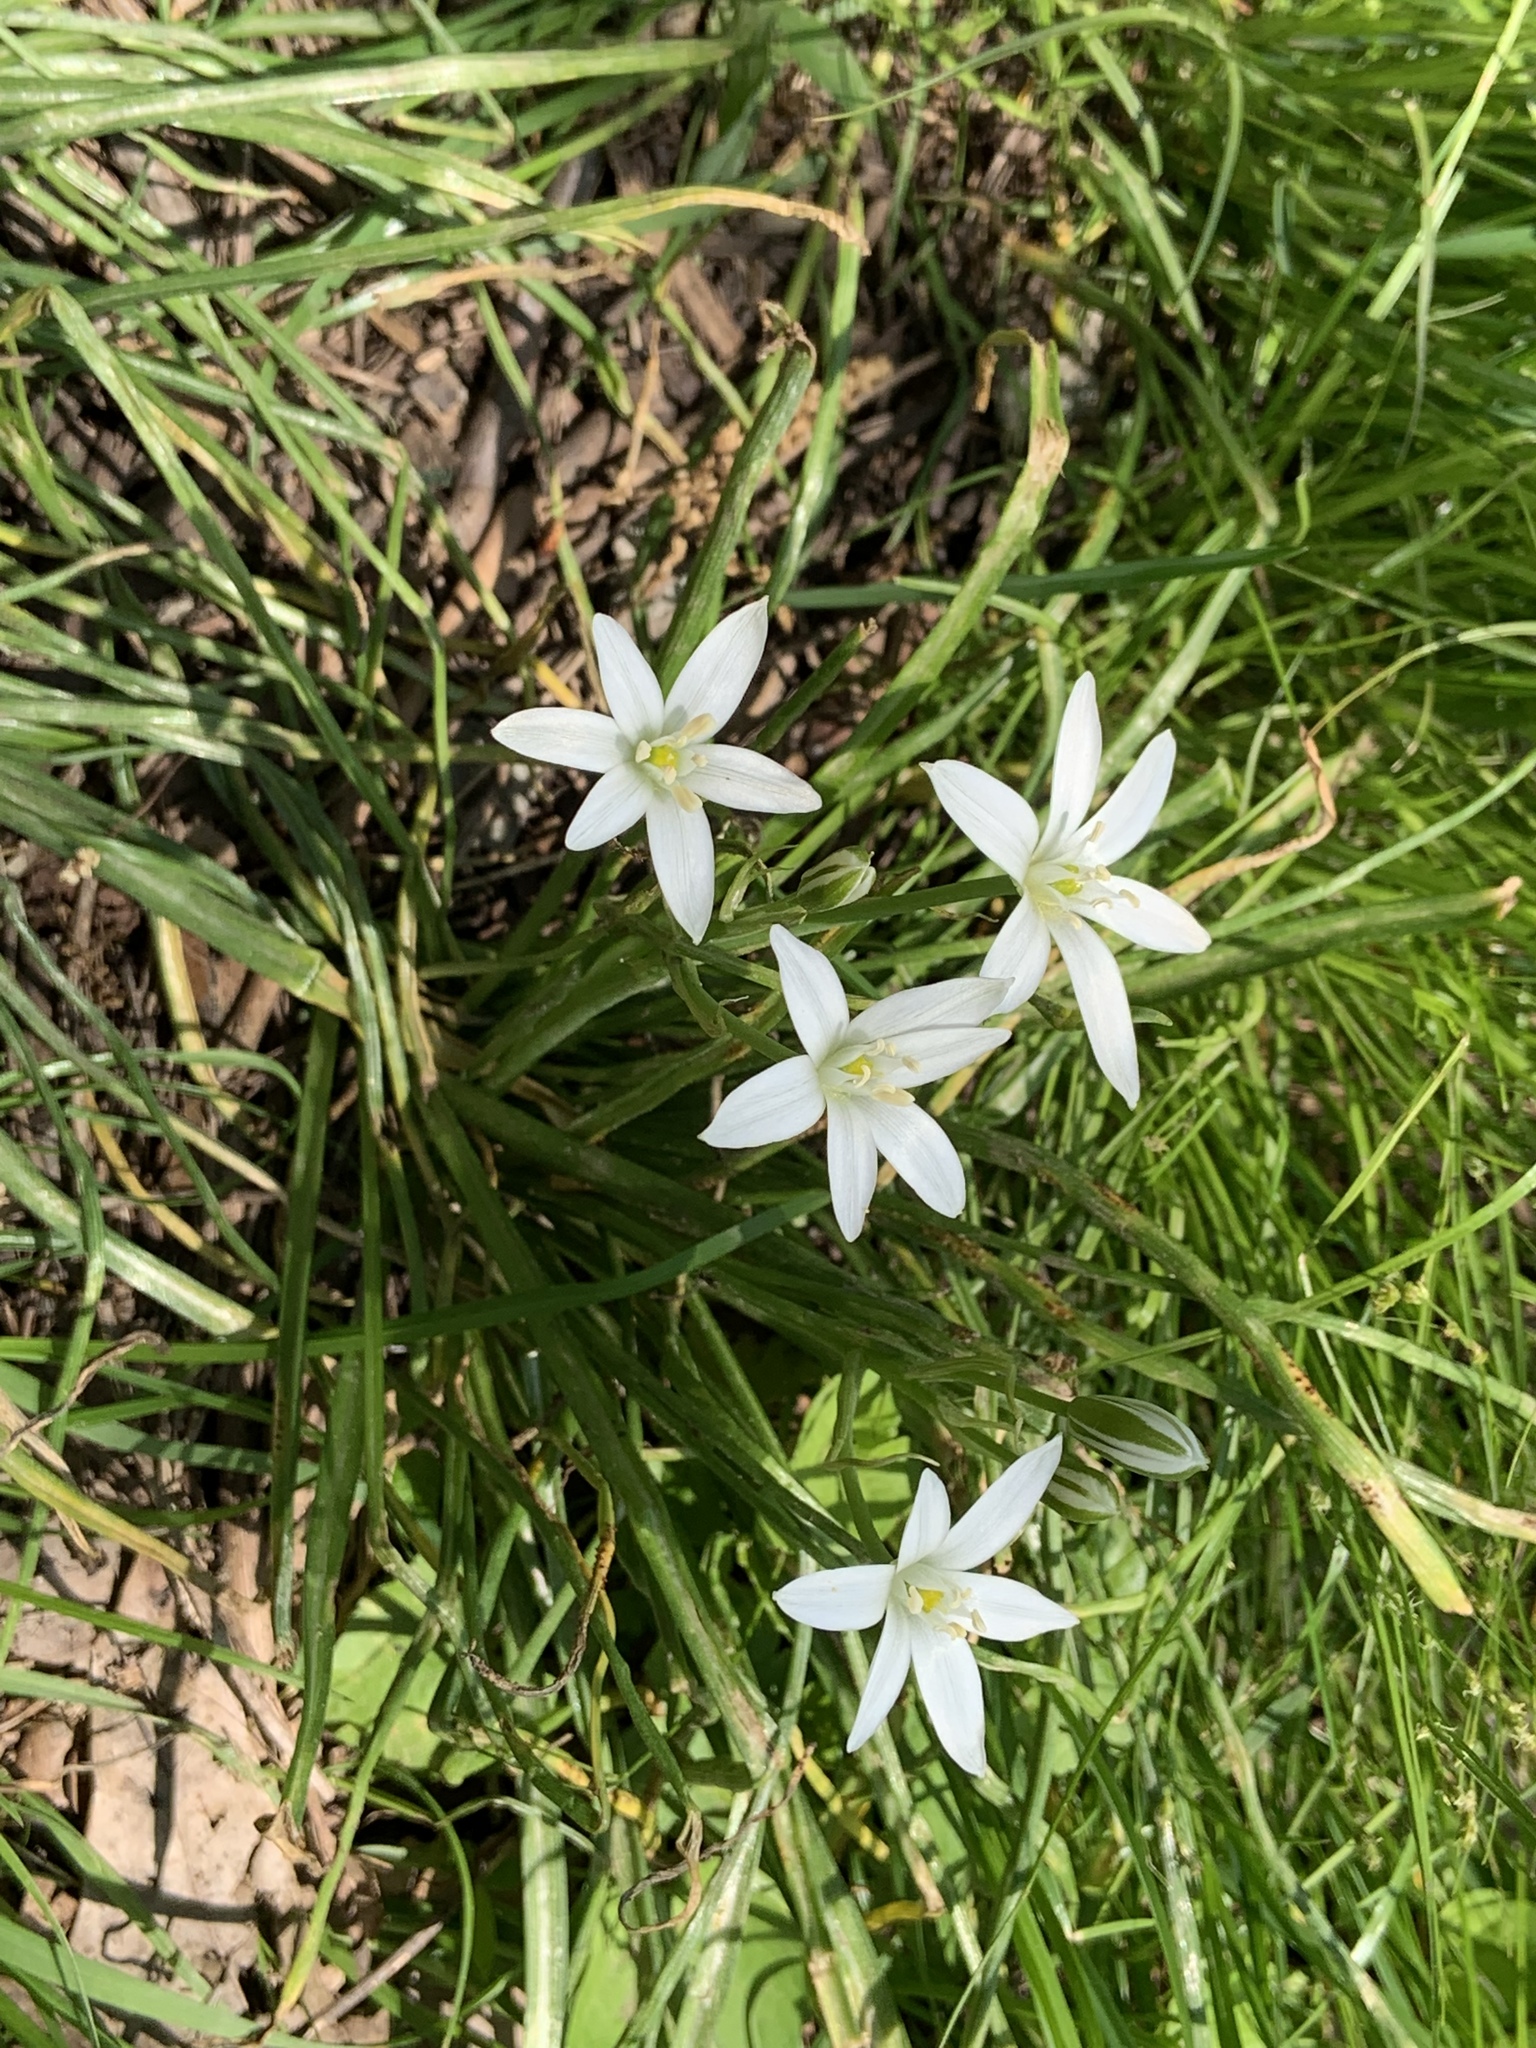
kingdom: Plantae
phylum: Tracheophyta
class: Liliopsida
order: Asparagales
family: Asparagaceae
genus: Ornithogalum
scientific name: Ornithogalum umbellatum
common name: Garden star-of-bethlehem
